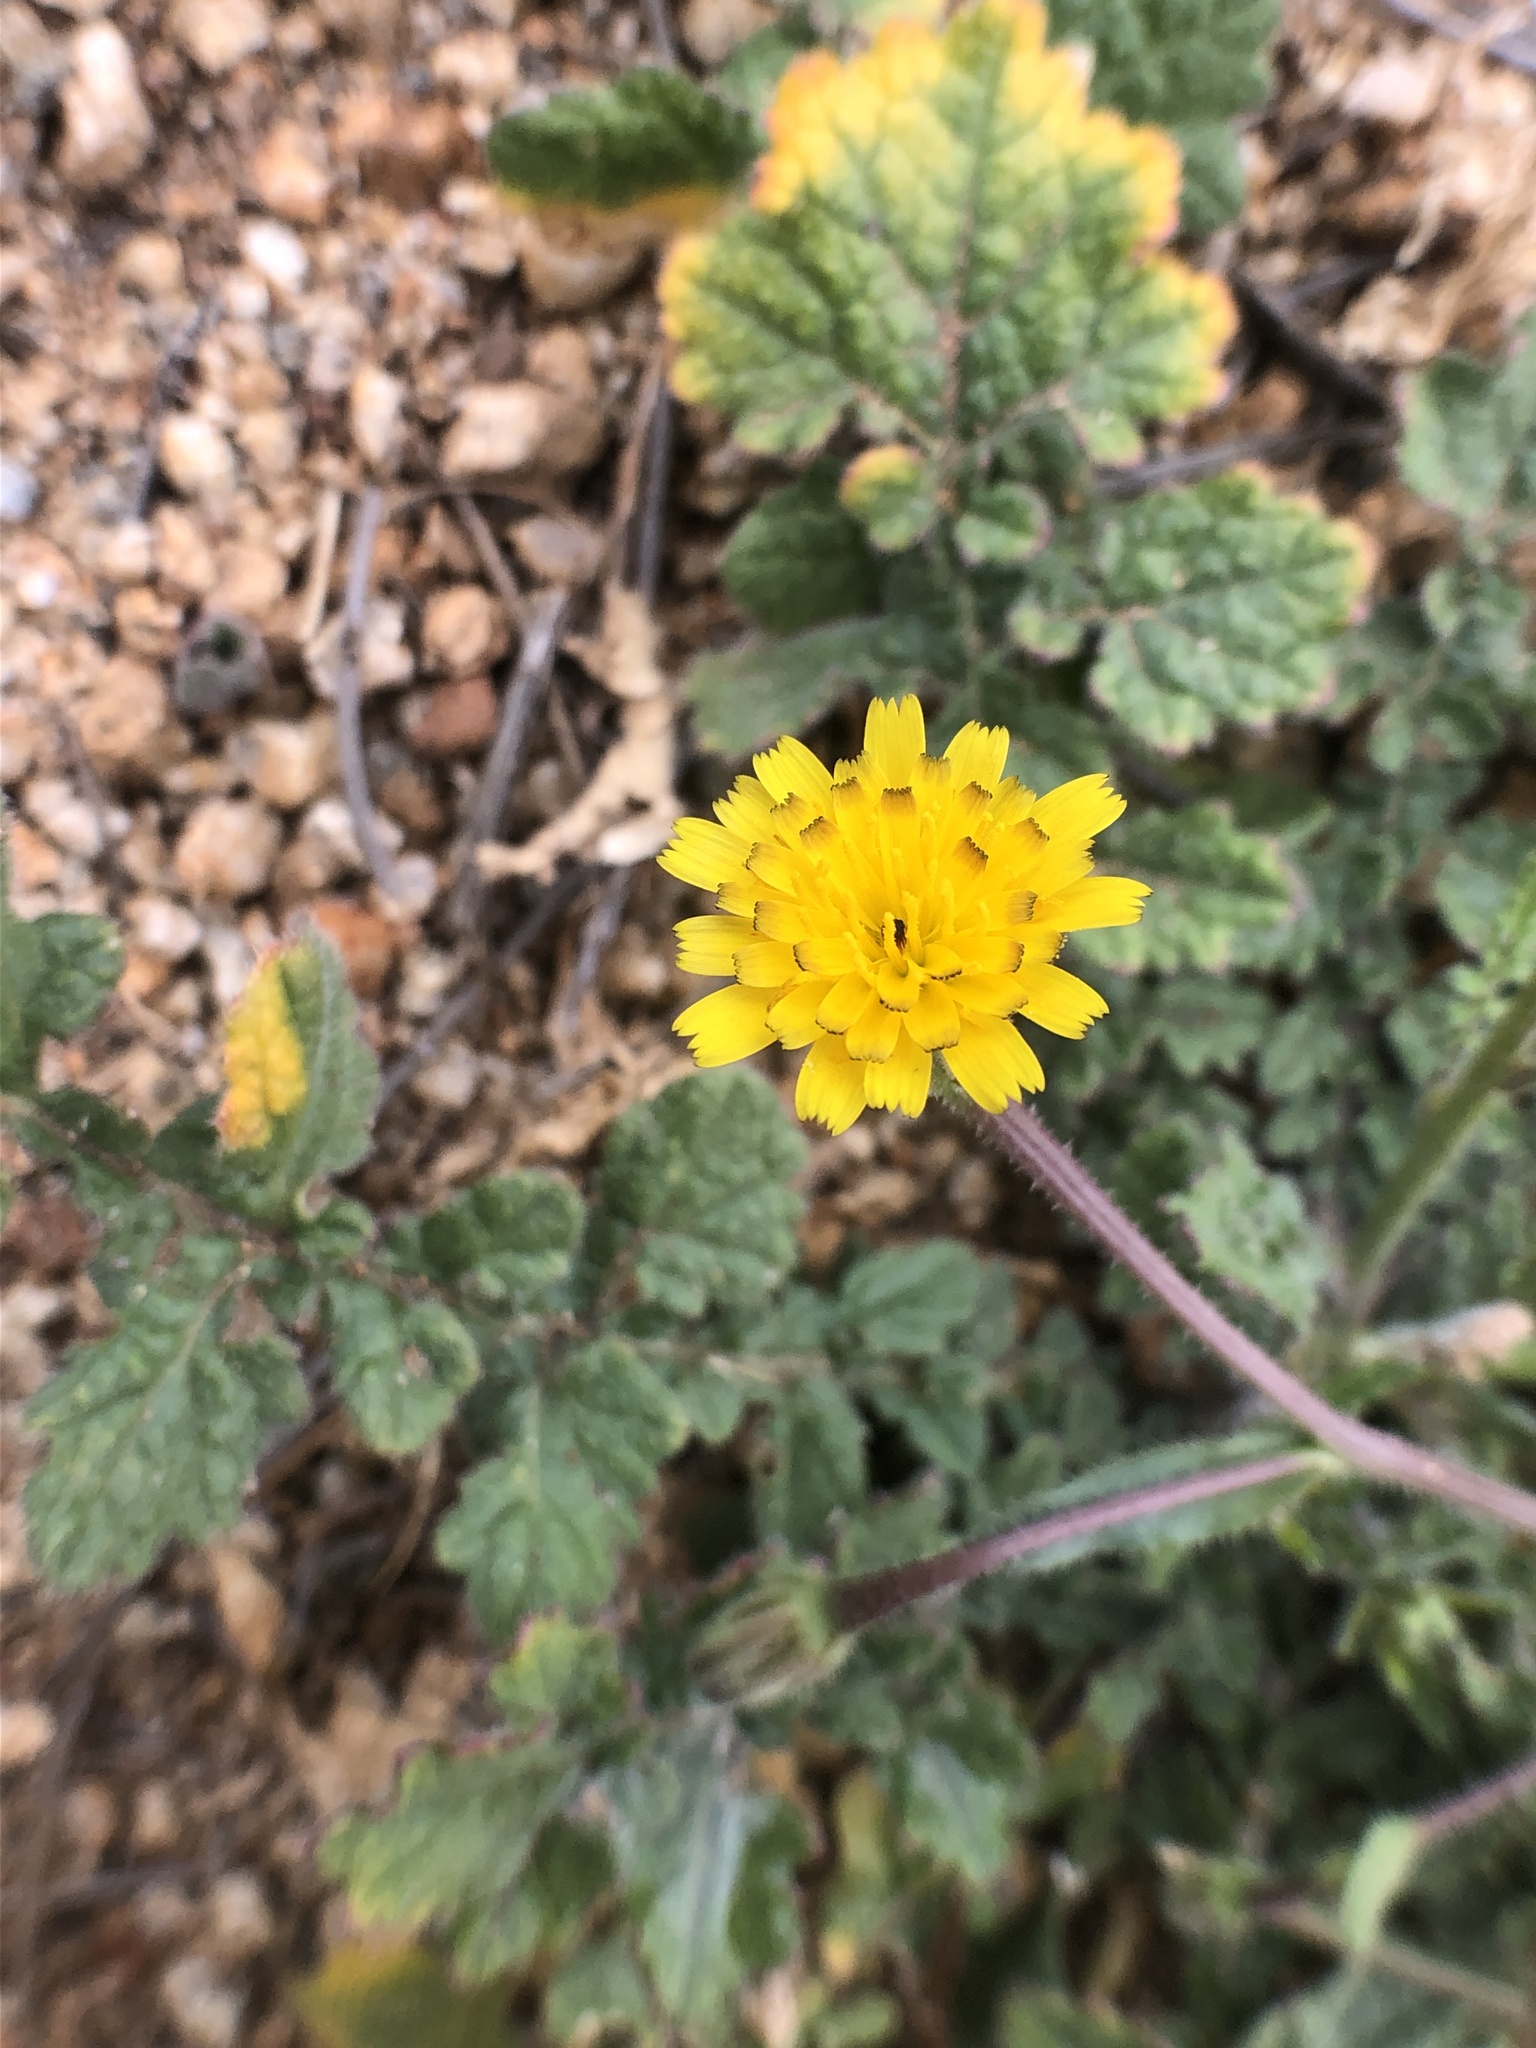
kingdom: Plantae
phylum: Tracheophyta
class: Magnoliopsida
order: Asterales
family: Asteraceae
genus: Hedypnois
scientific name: Hedypnois rhagadioloides
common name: Cretan weed
